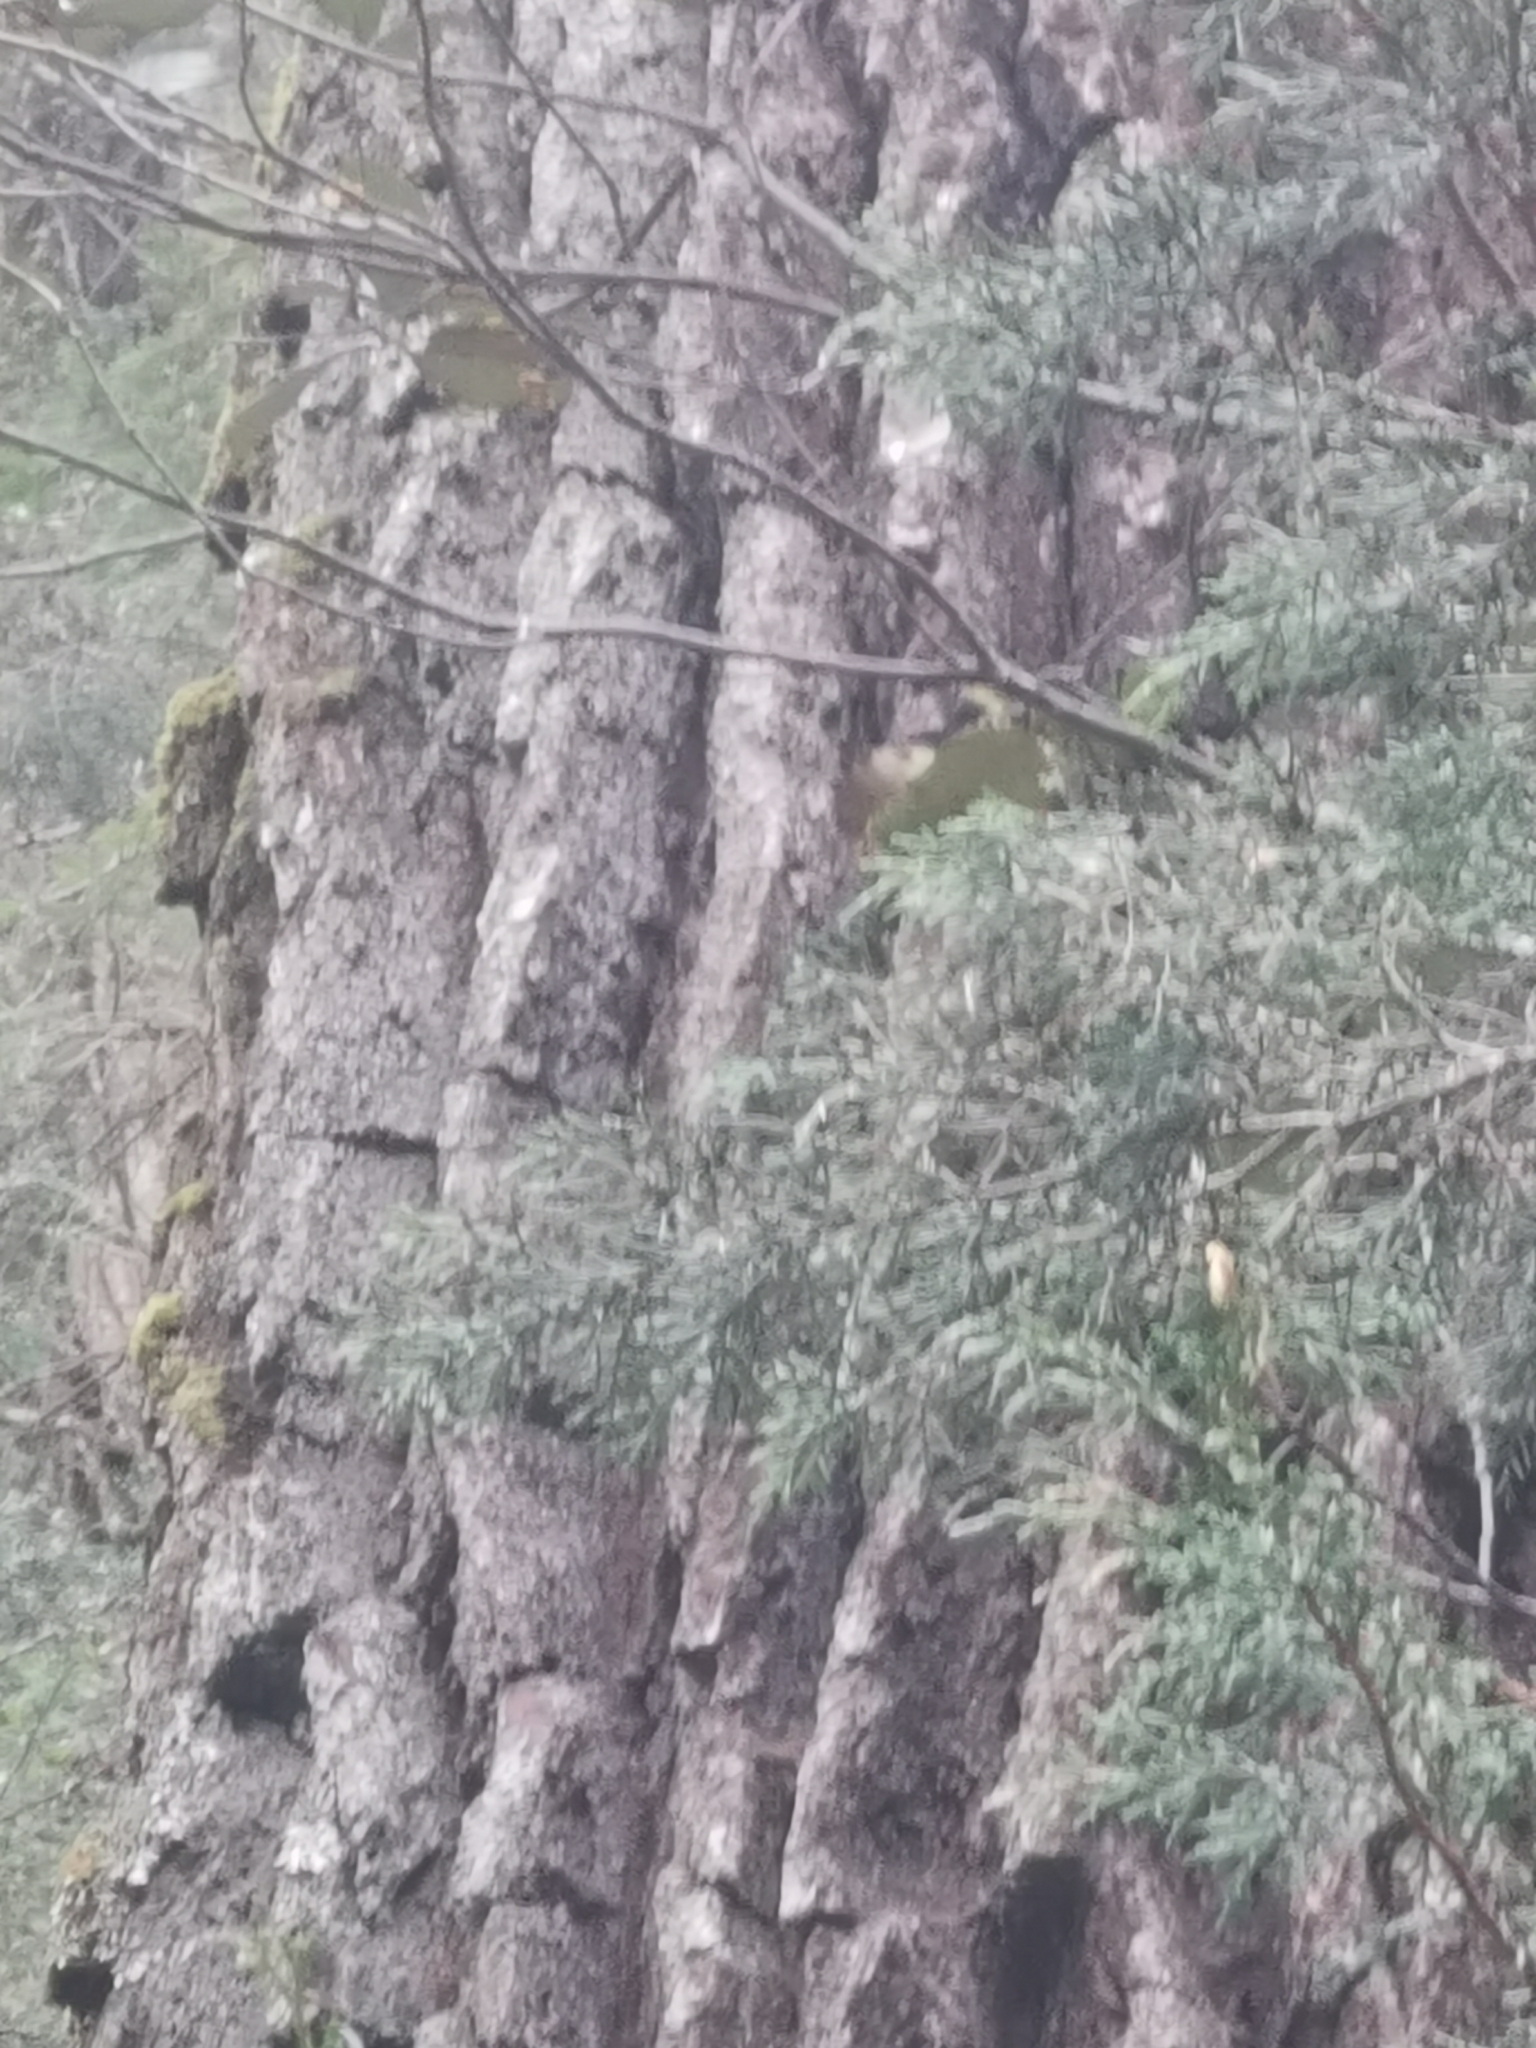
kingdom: Plantae
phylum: Tracheophyta
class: Pinopsida
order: Pinales
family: Pinaceae
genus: Pinus
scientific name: Pinus strobiformis
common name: Southwestern white pine
